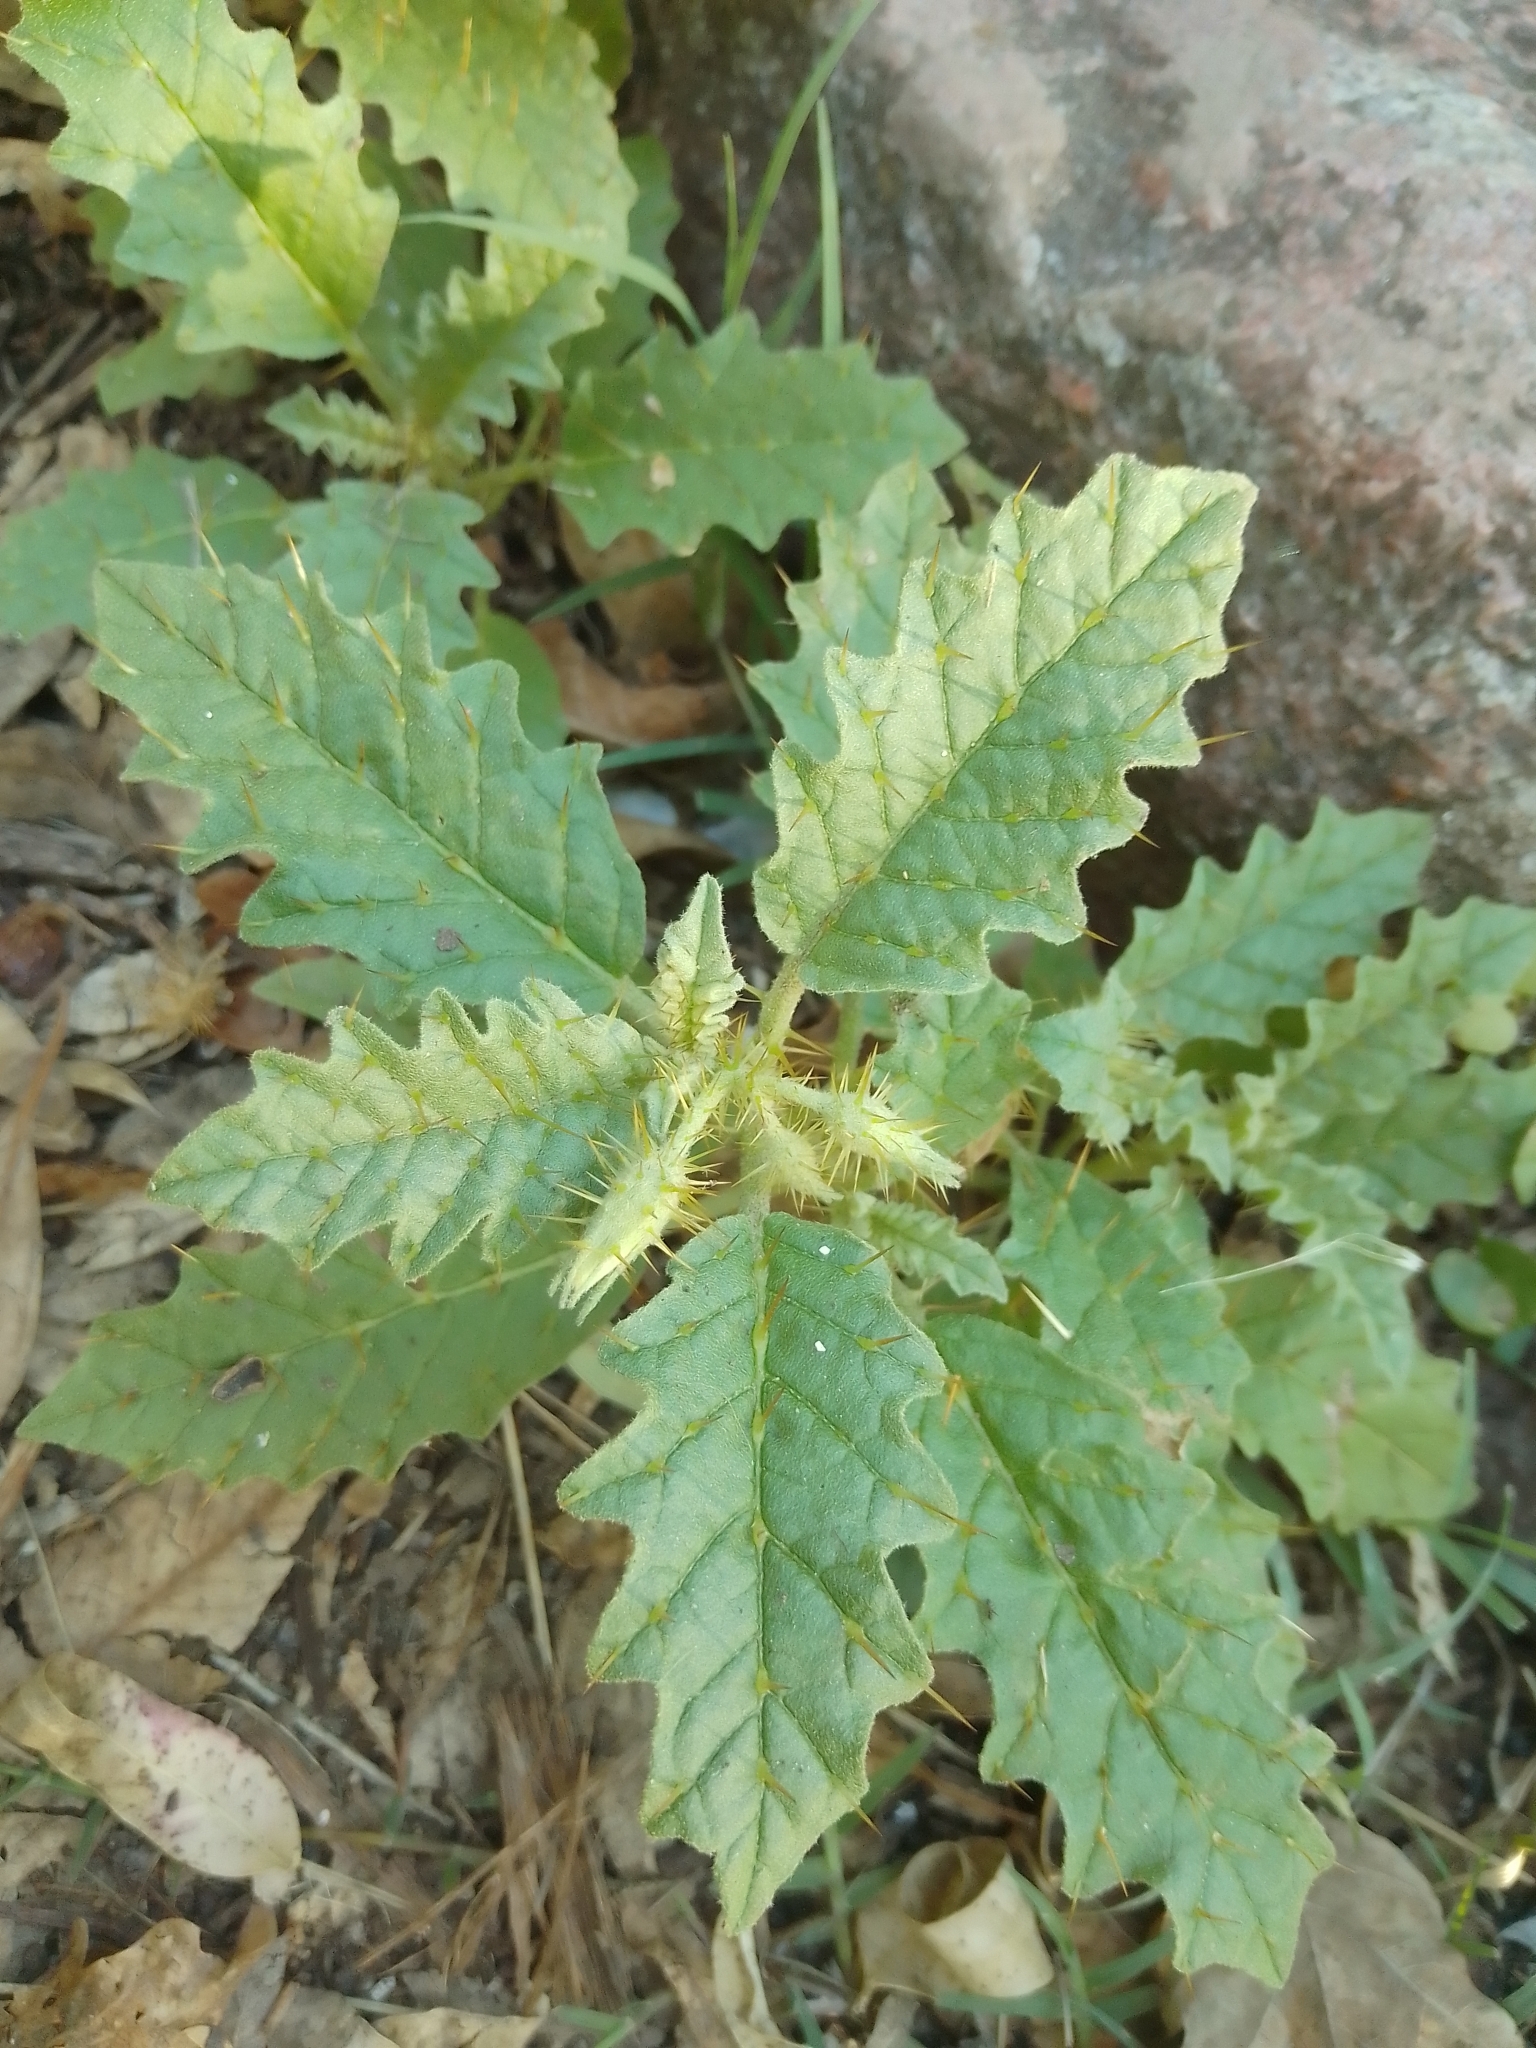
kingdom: Plantae
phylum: Tracheophyta
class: Magnoliopsida
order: Solanales
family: Solanaceae
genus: Solanum
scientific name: Solanum juvenale
